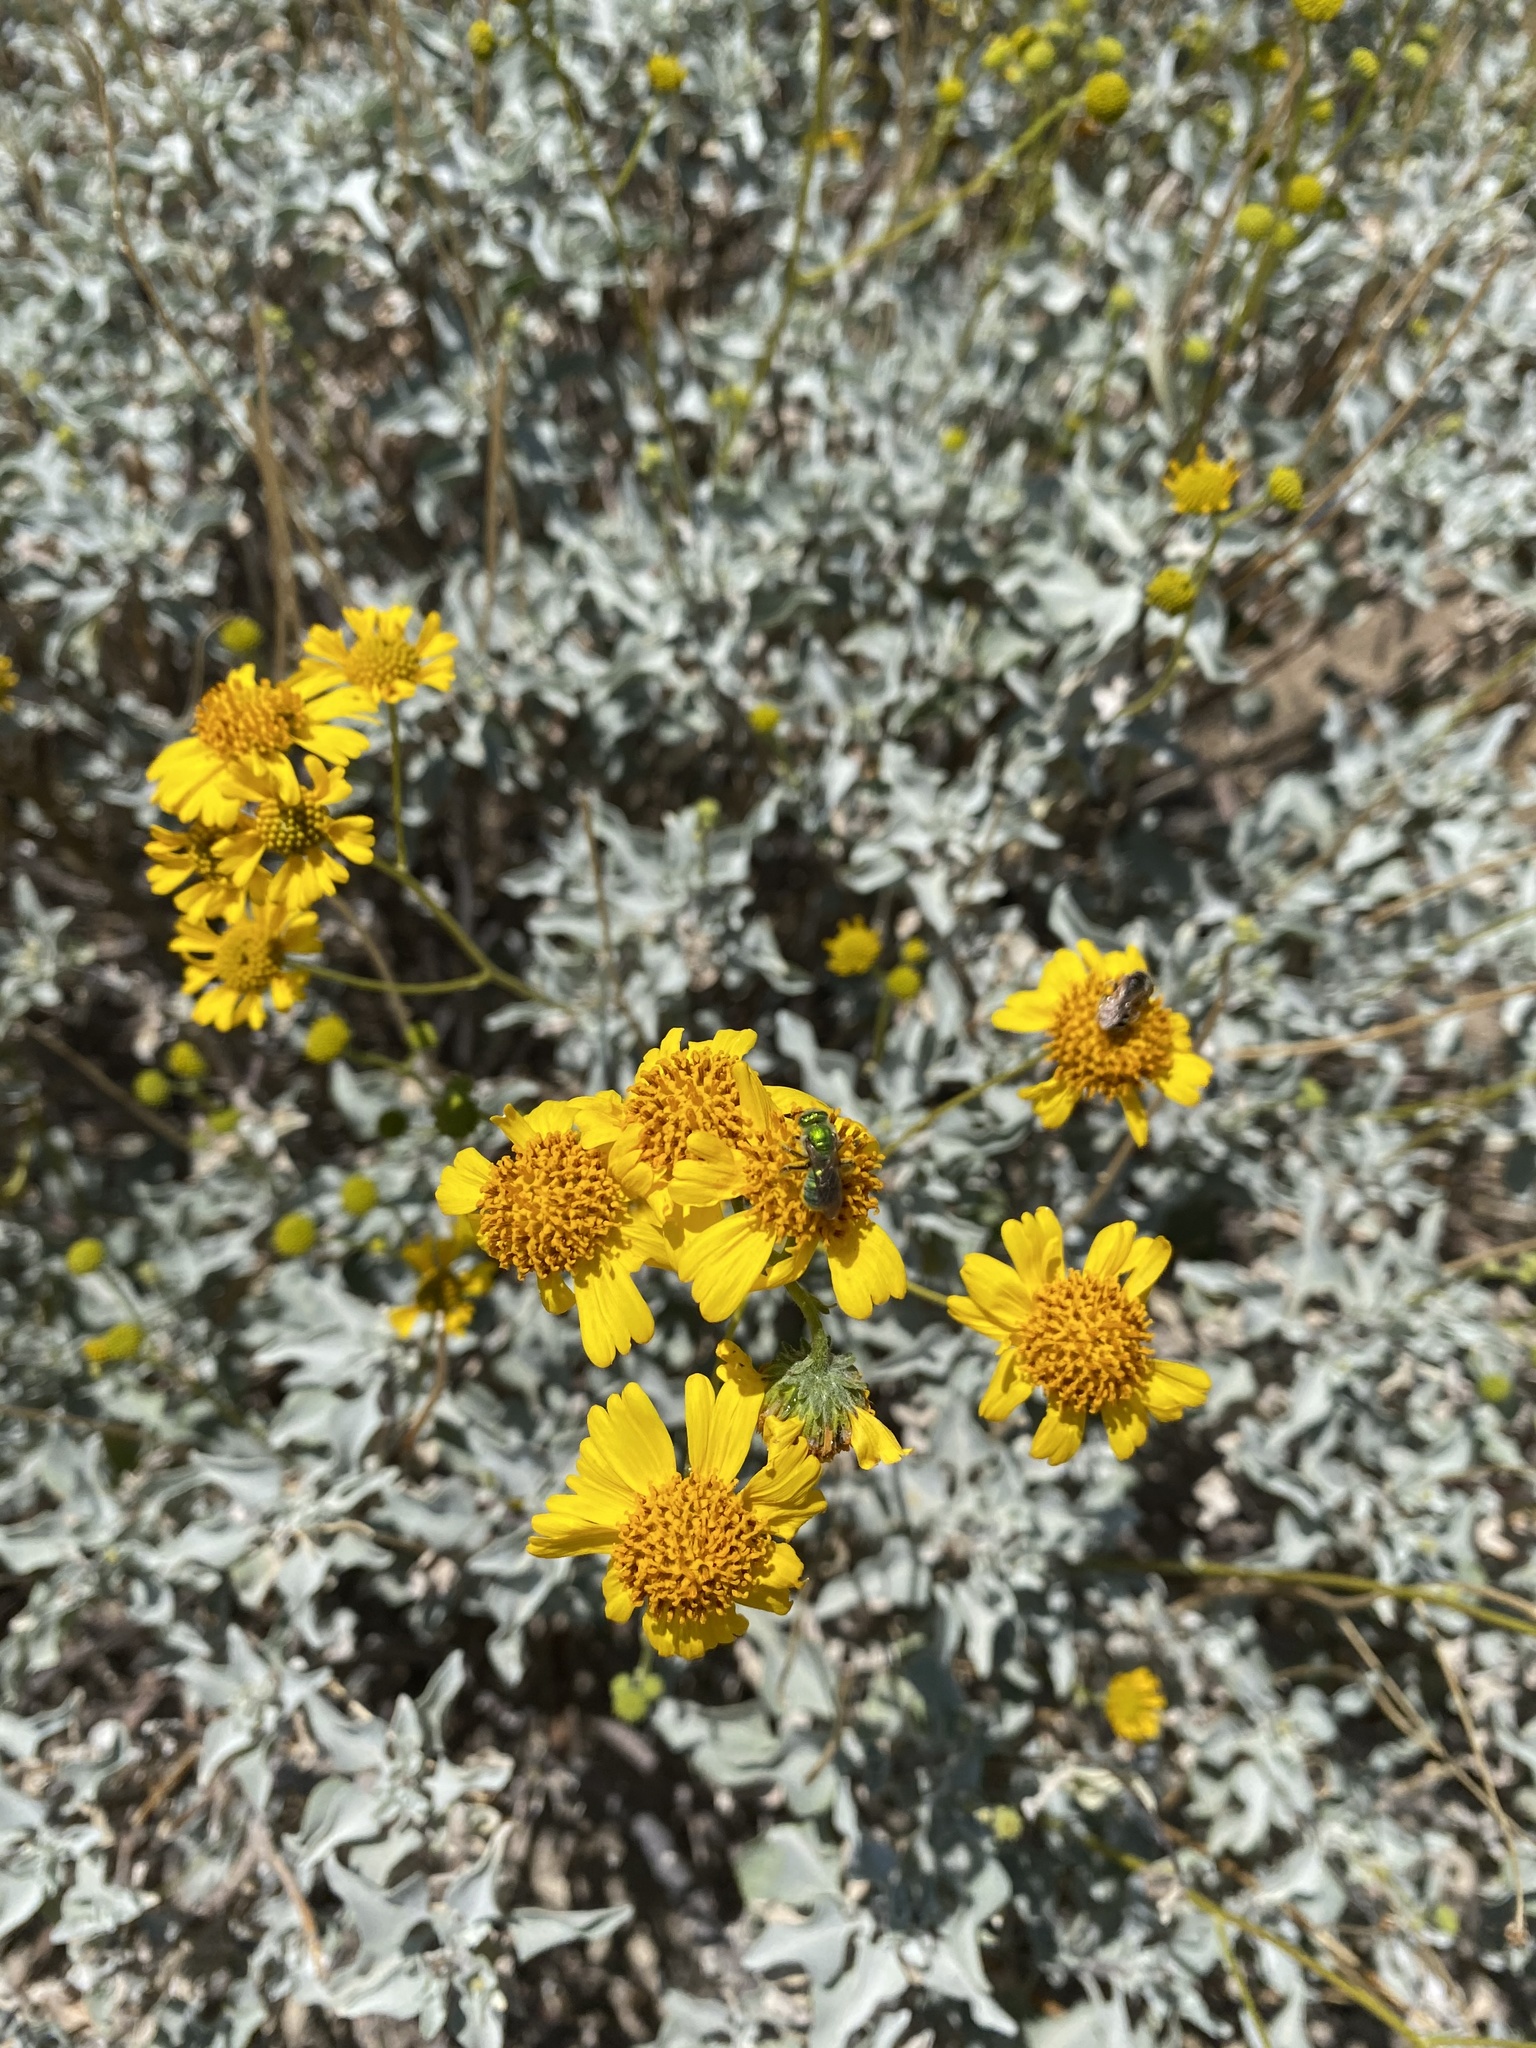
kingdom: Animalia
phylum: Arthropoda
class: Insecta
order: Hymenoptera
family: Halictidae
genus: Agapostemon
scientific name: Agapostemon
